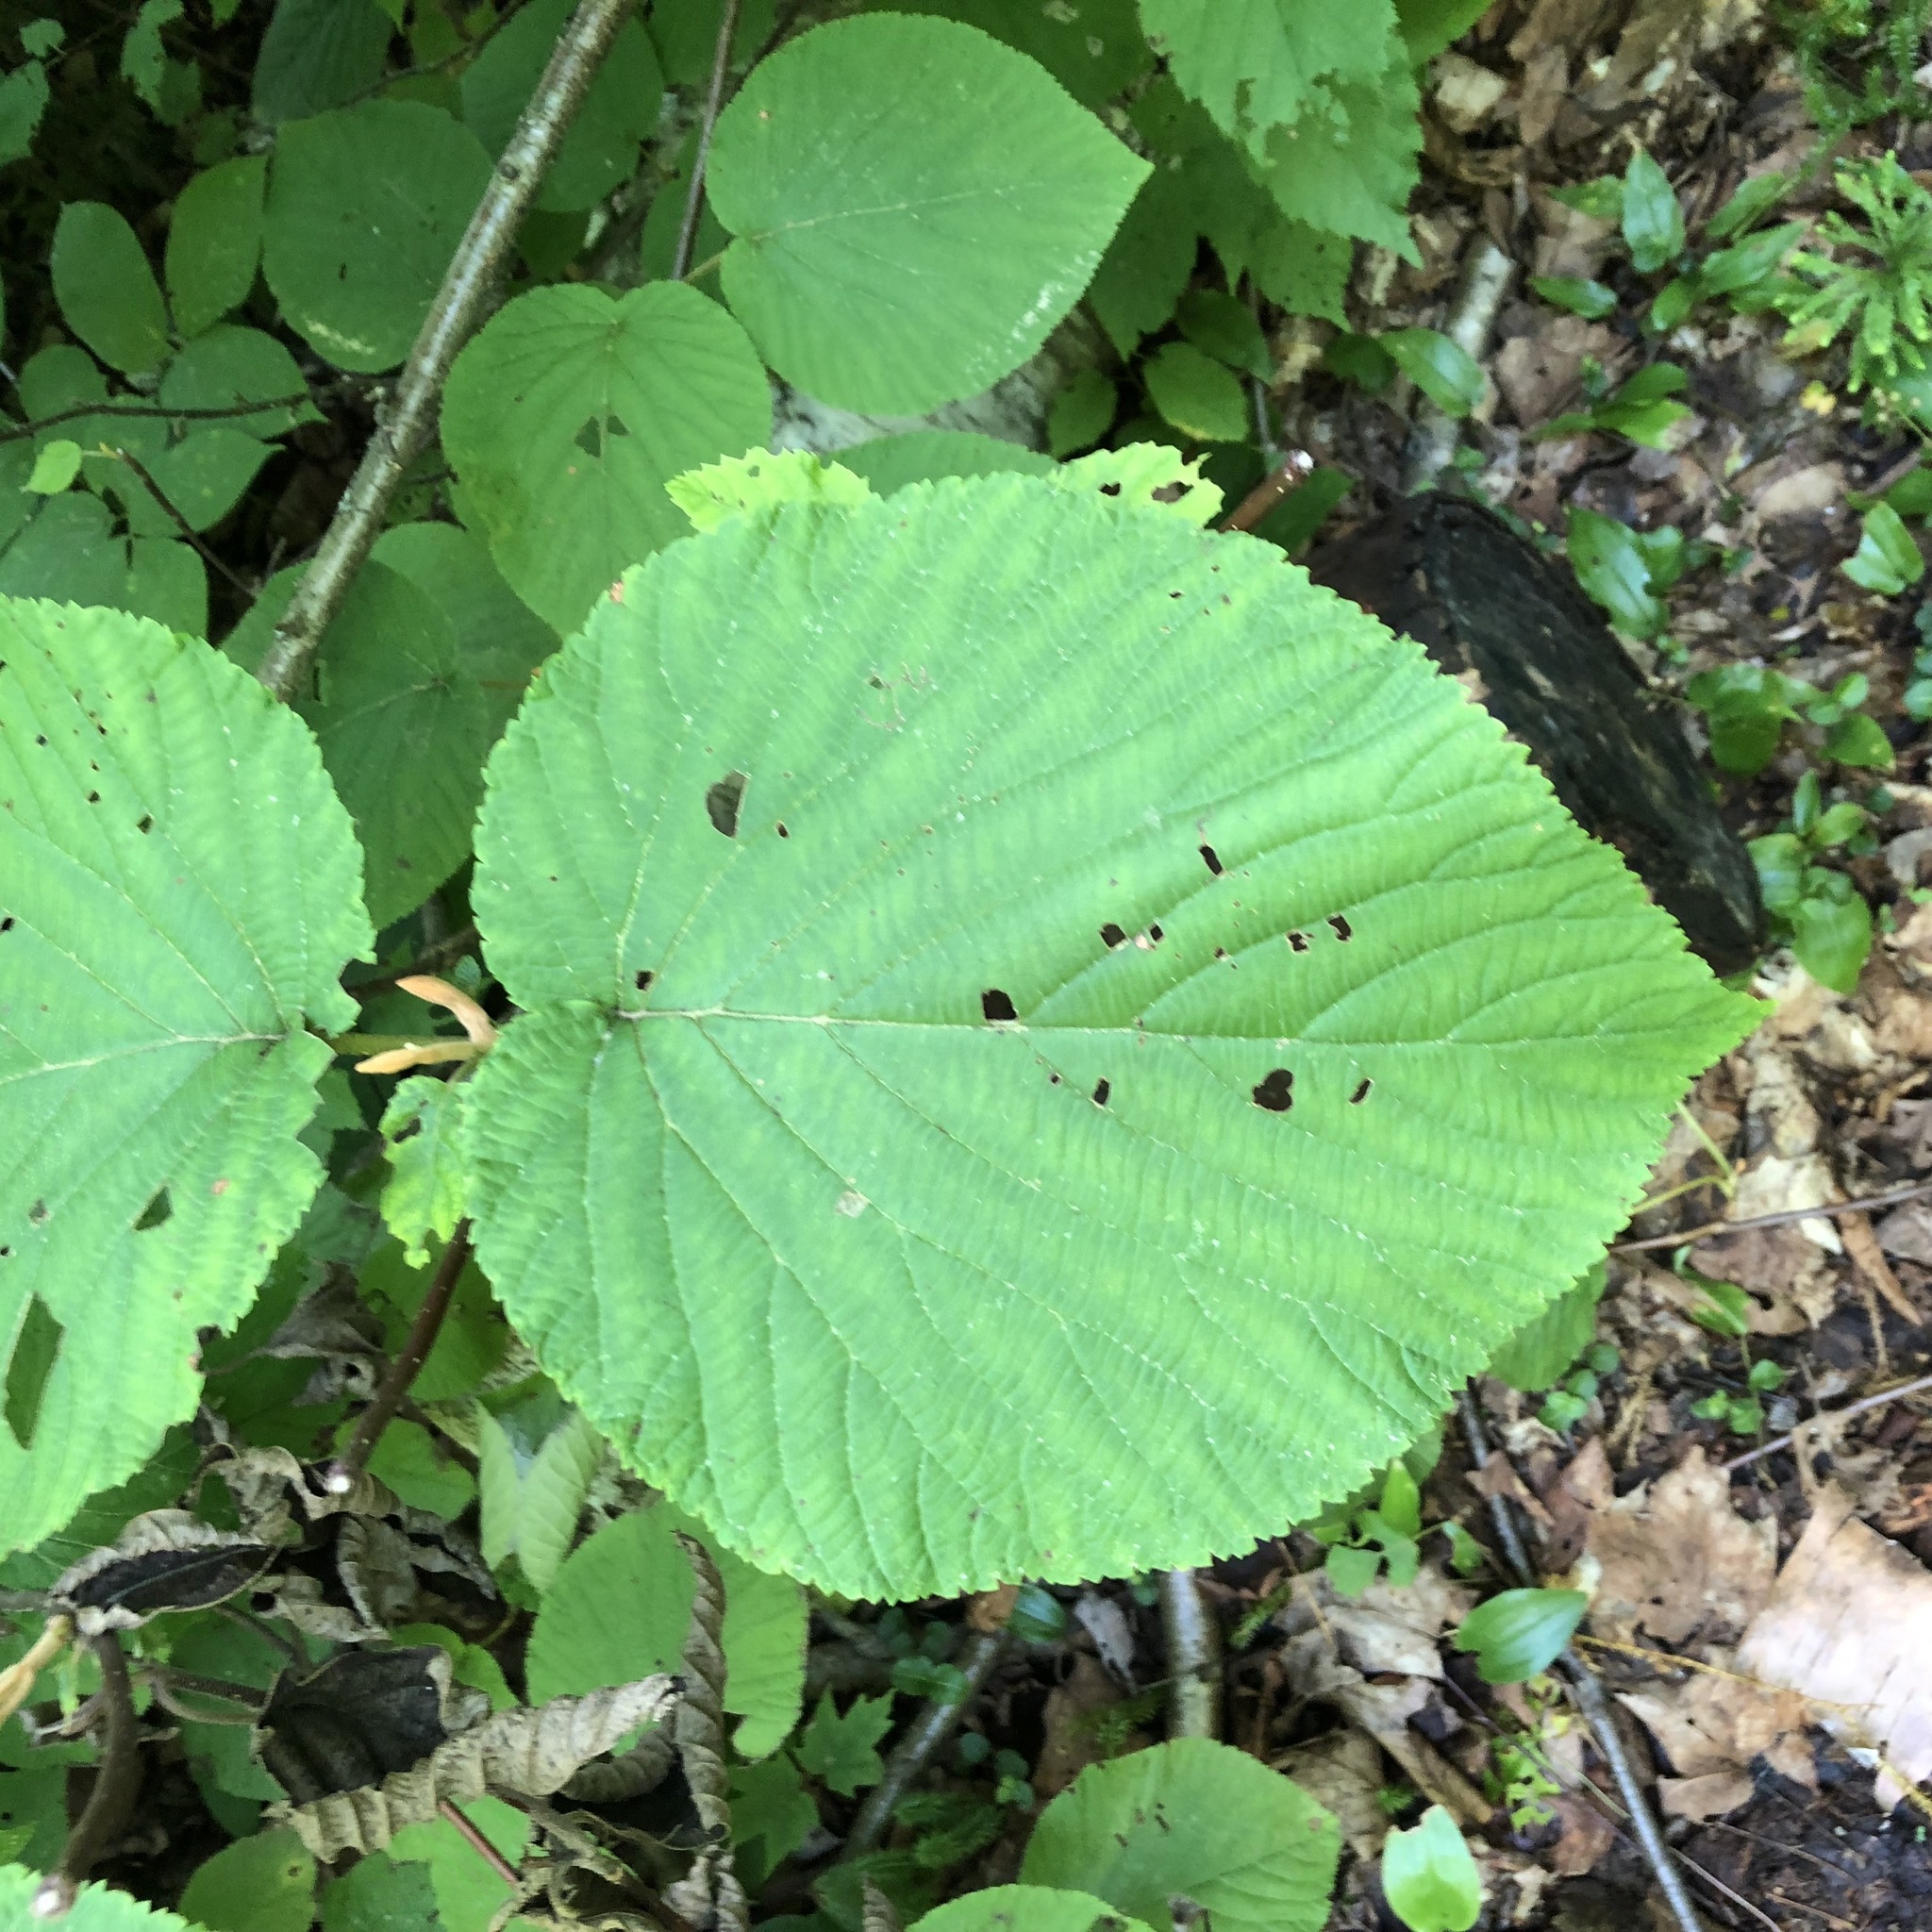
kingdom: Plantae
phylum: Tracheophyta
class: Magnoliopsida
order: Dipsacales
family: Viburnaceae
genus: Viburnum
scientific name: Viburnum lantanoides
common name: Hobblebush
